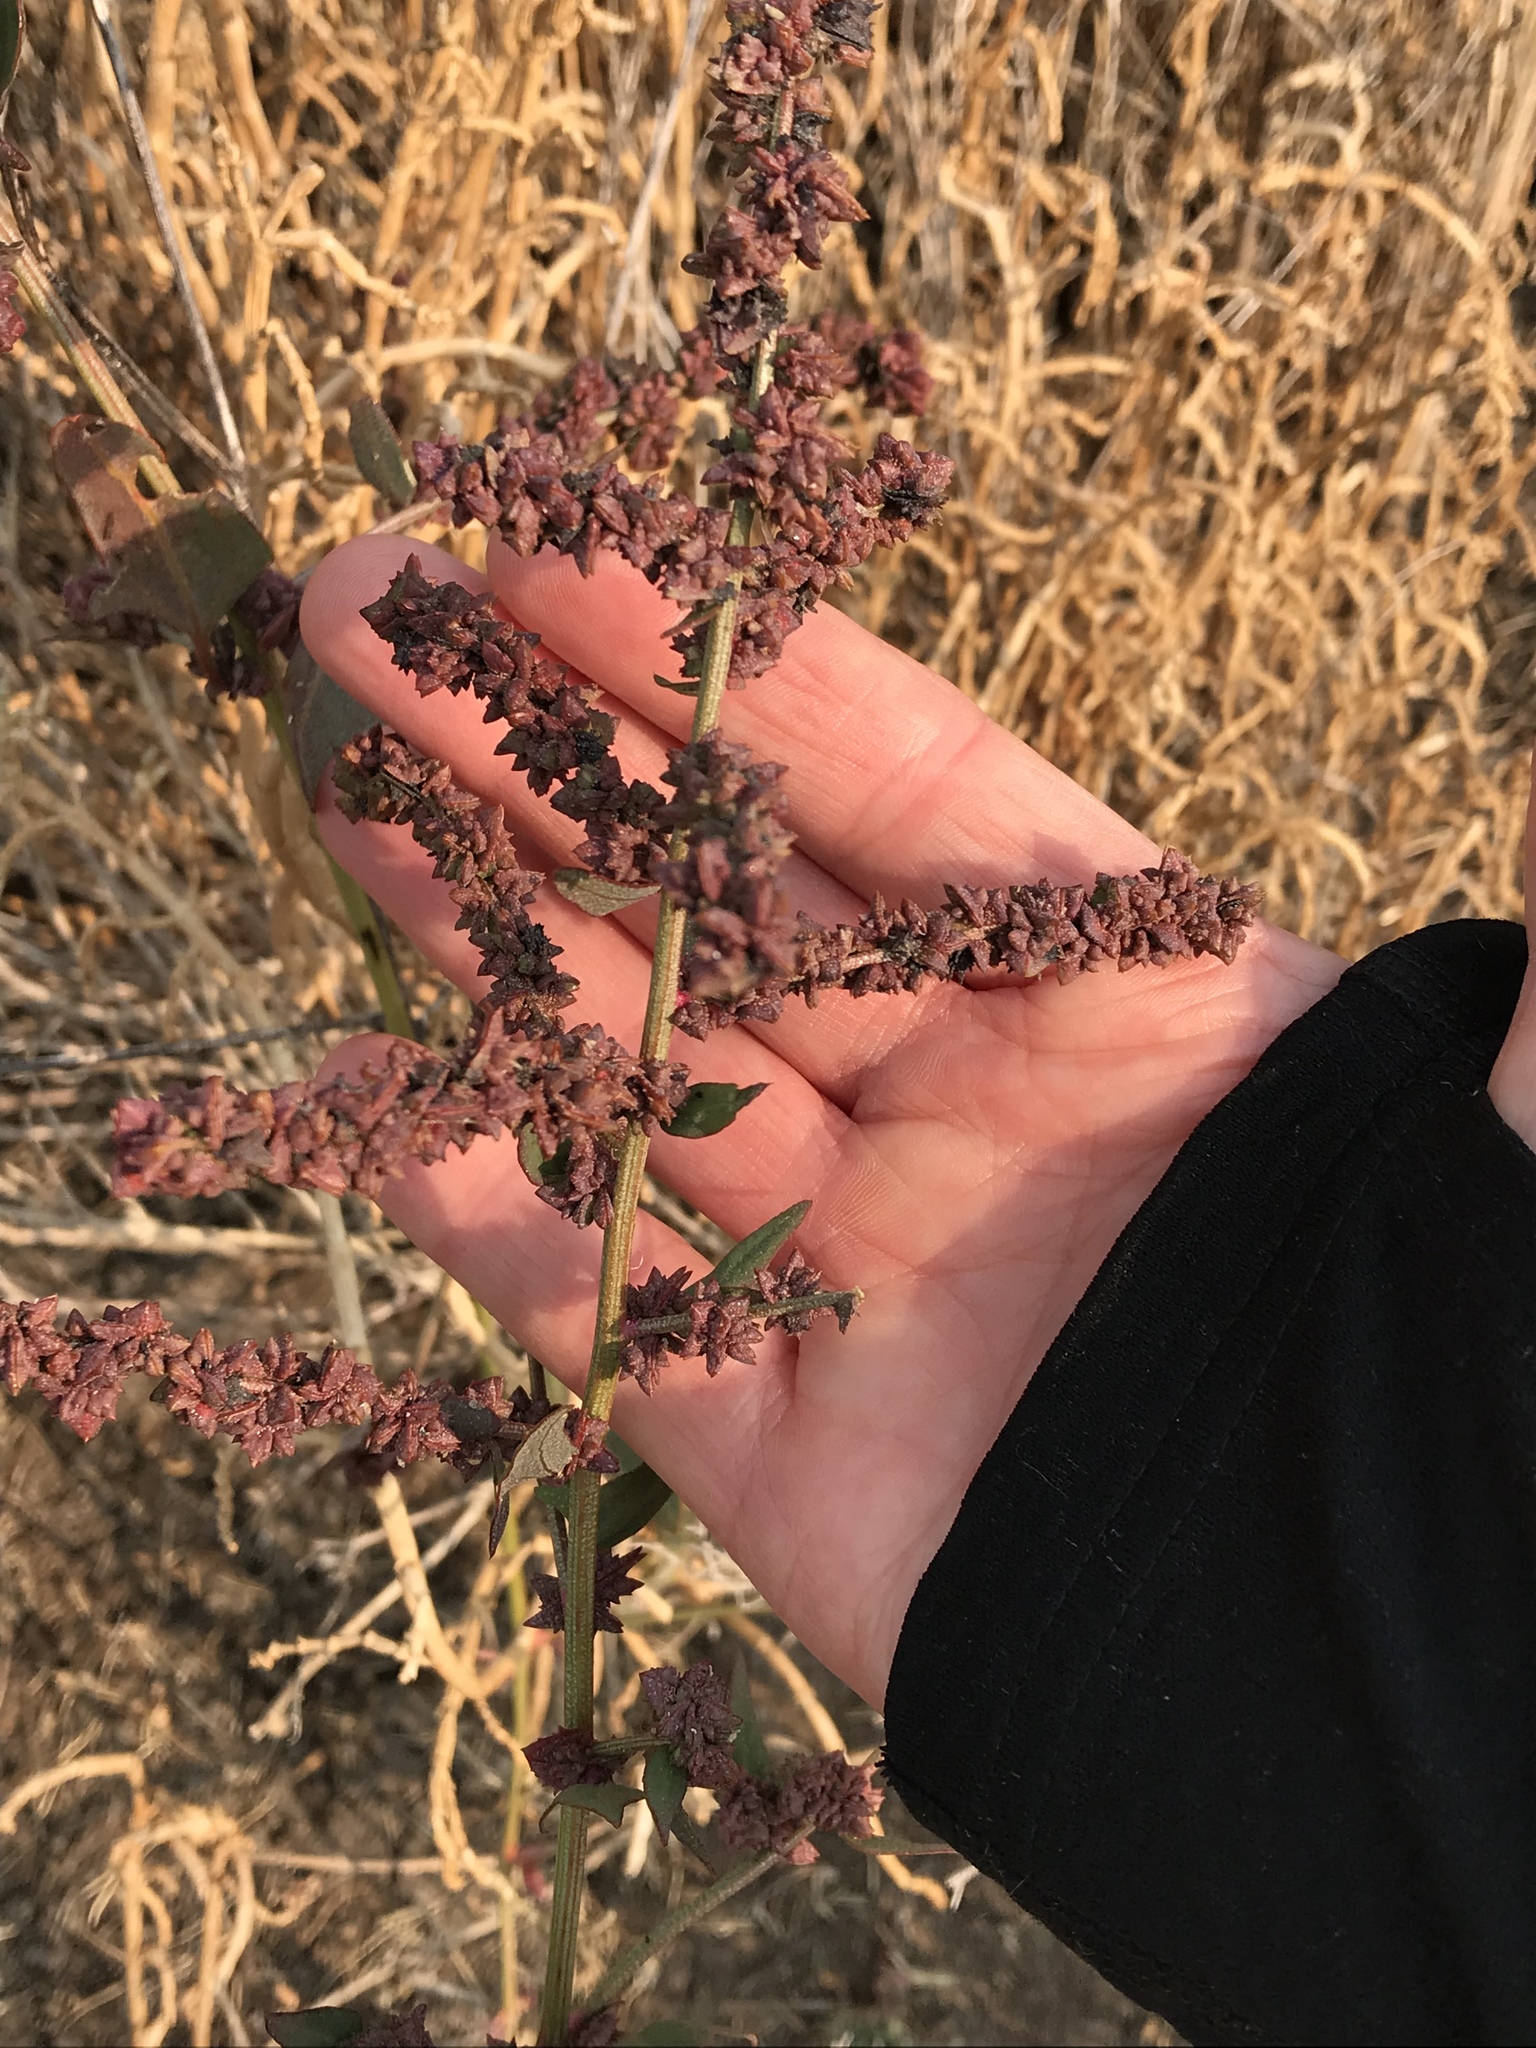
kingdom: Plantae
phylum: Tracheophyta
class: Magnoliopsida
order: Caryophyllales
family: Amaranthaceae
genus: Atriplex
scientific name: Atriplex prostrata
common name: Spear-leaved orache
